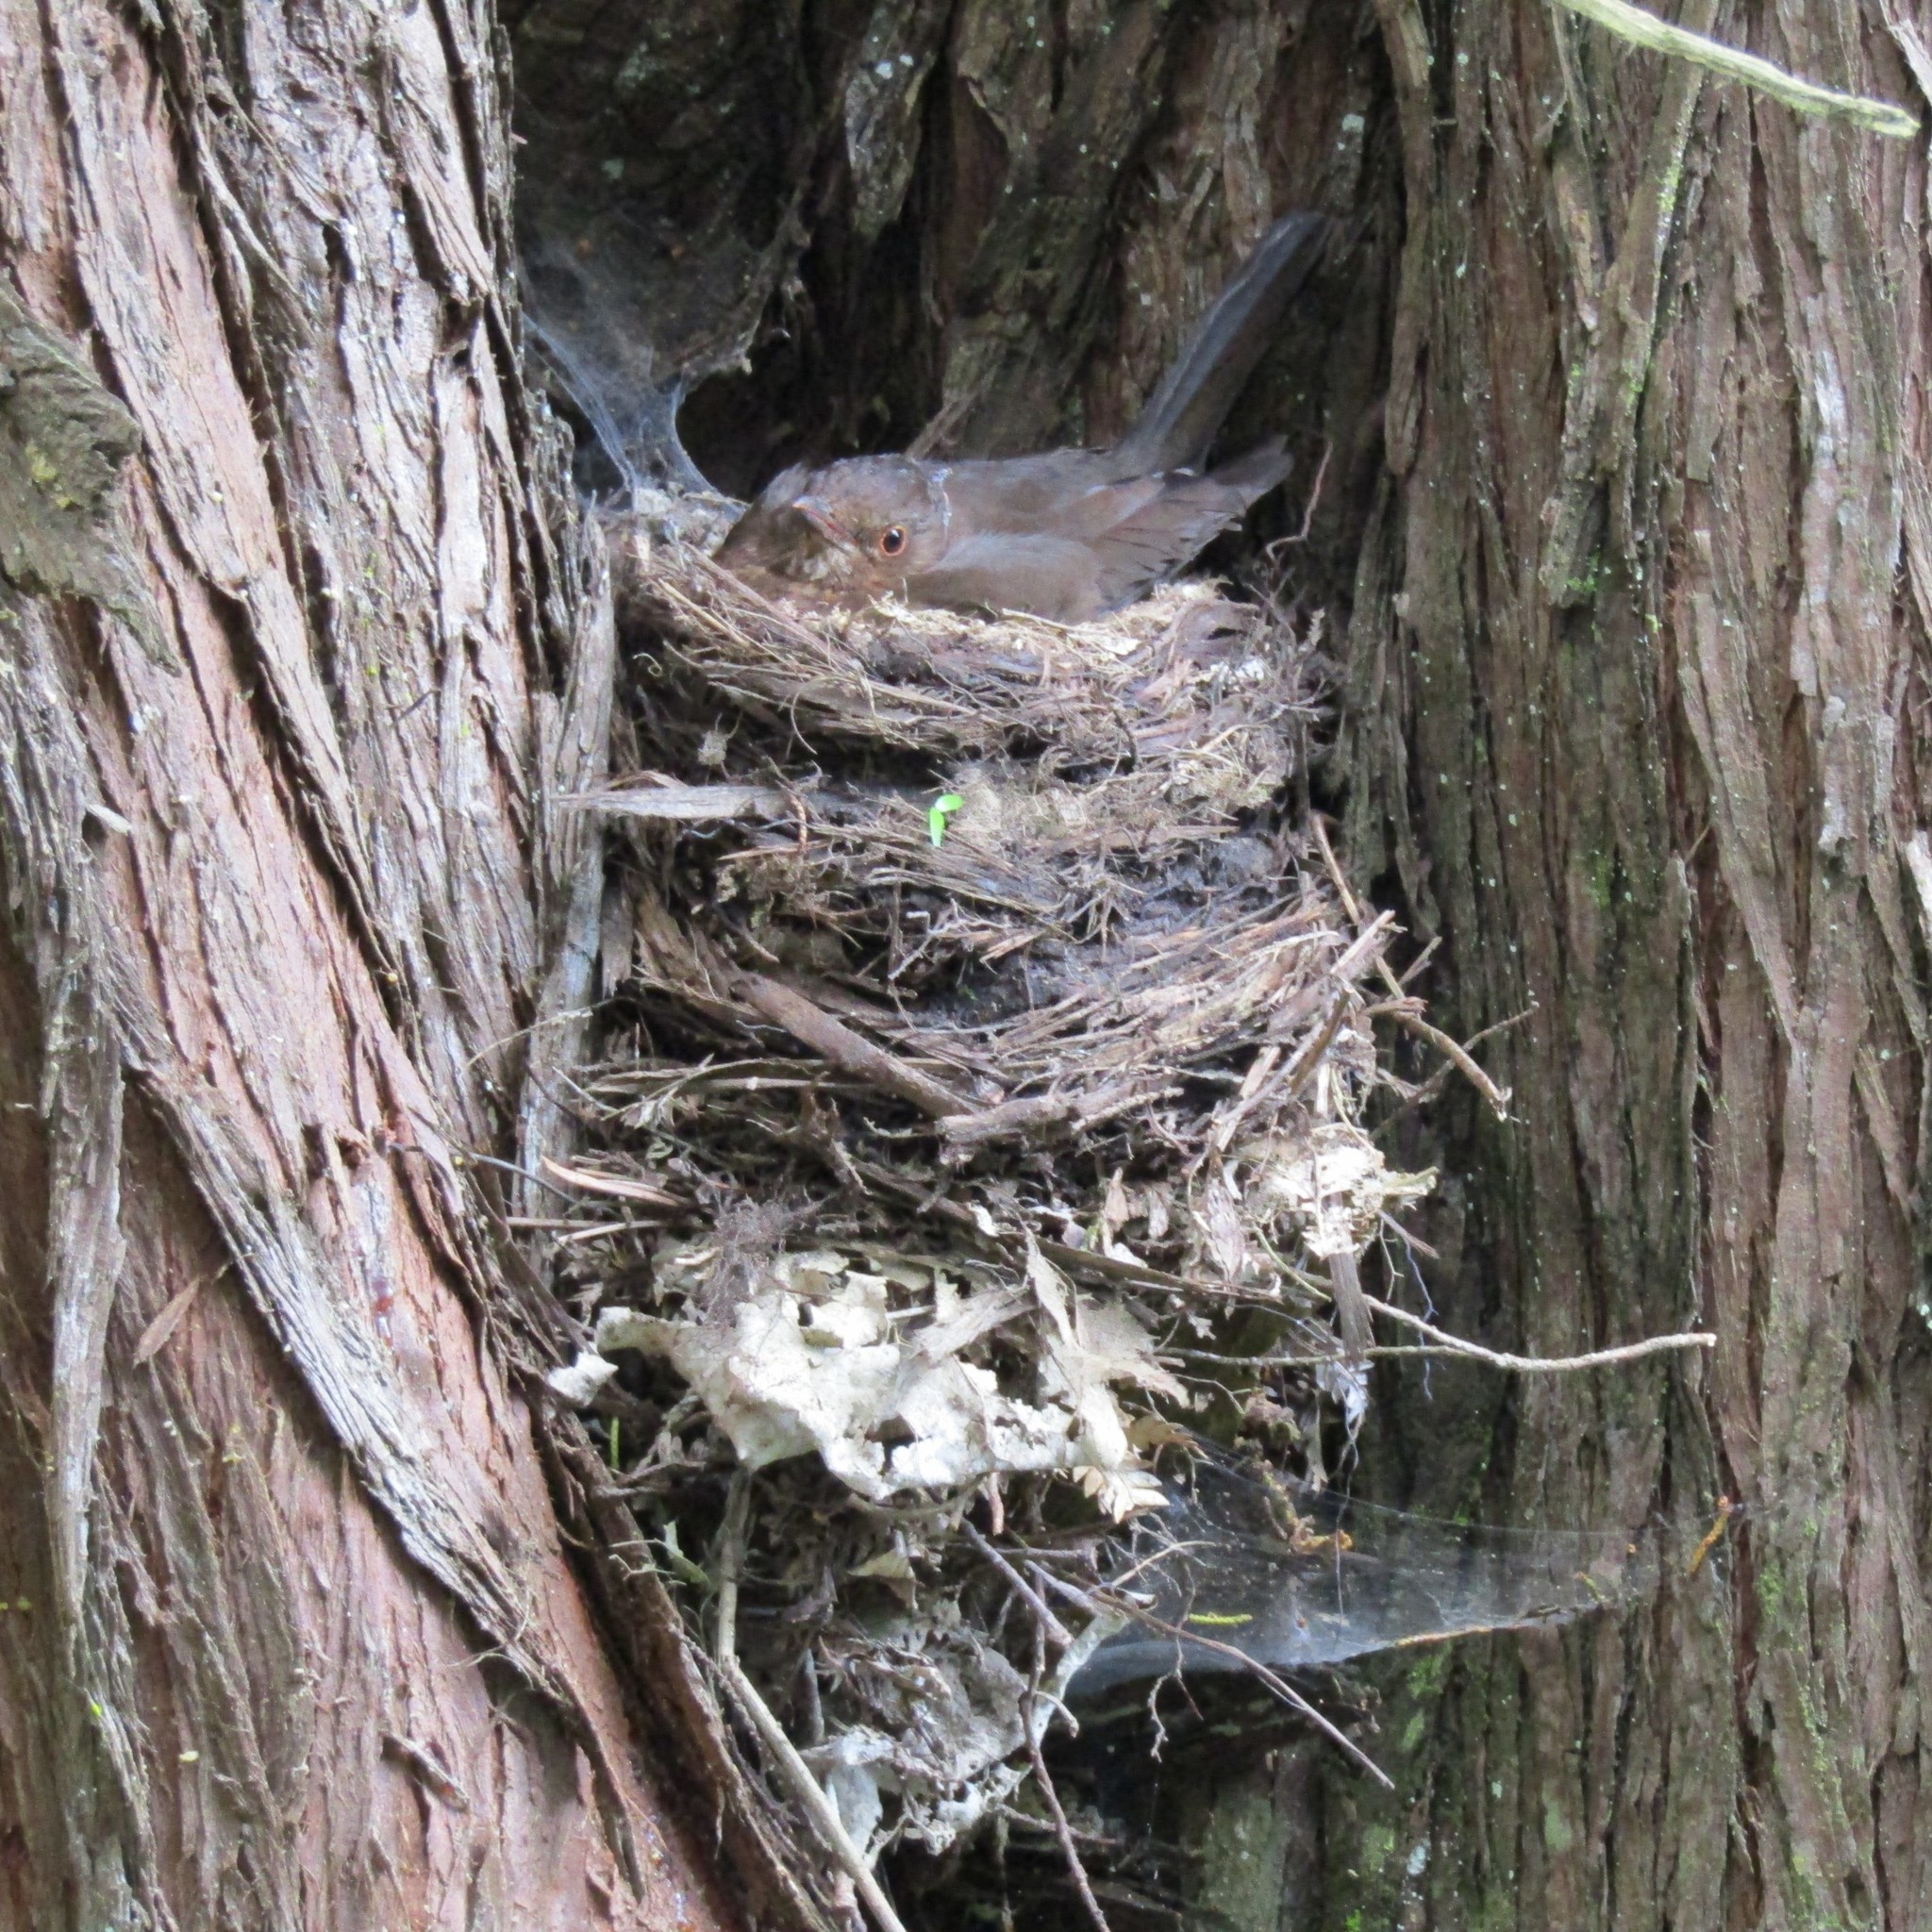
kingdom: Animalia
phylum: Chordata
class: Aves
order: Passeriformes
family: Turdidae
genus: Turdus
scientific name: Turdus merula
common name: Common blackbird
